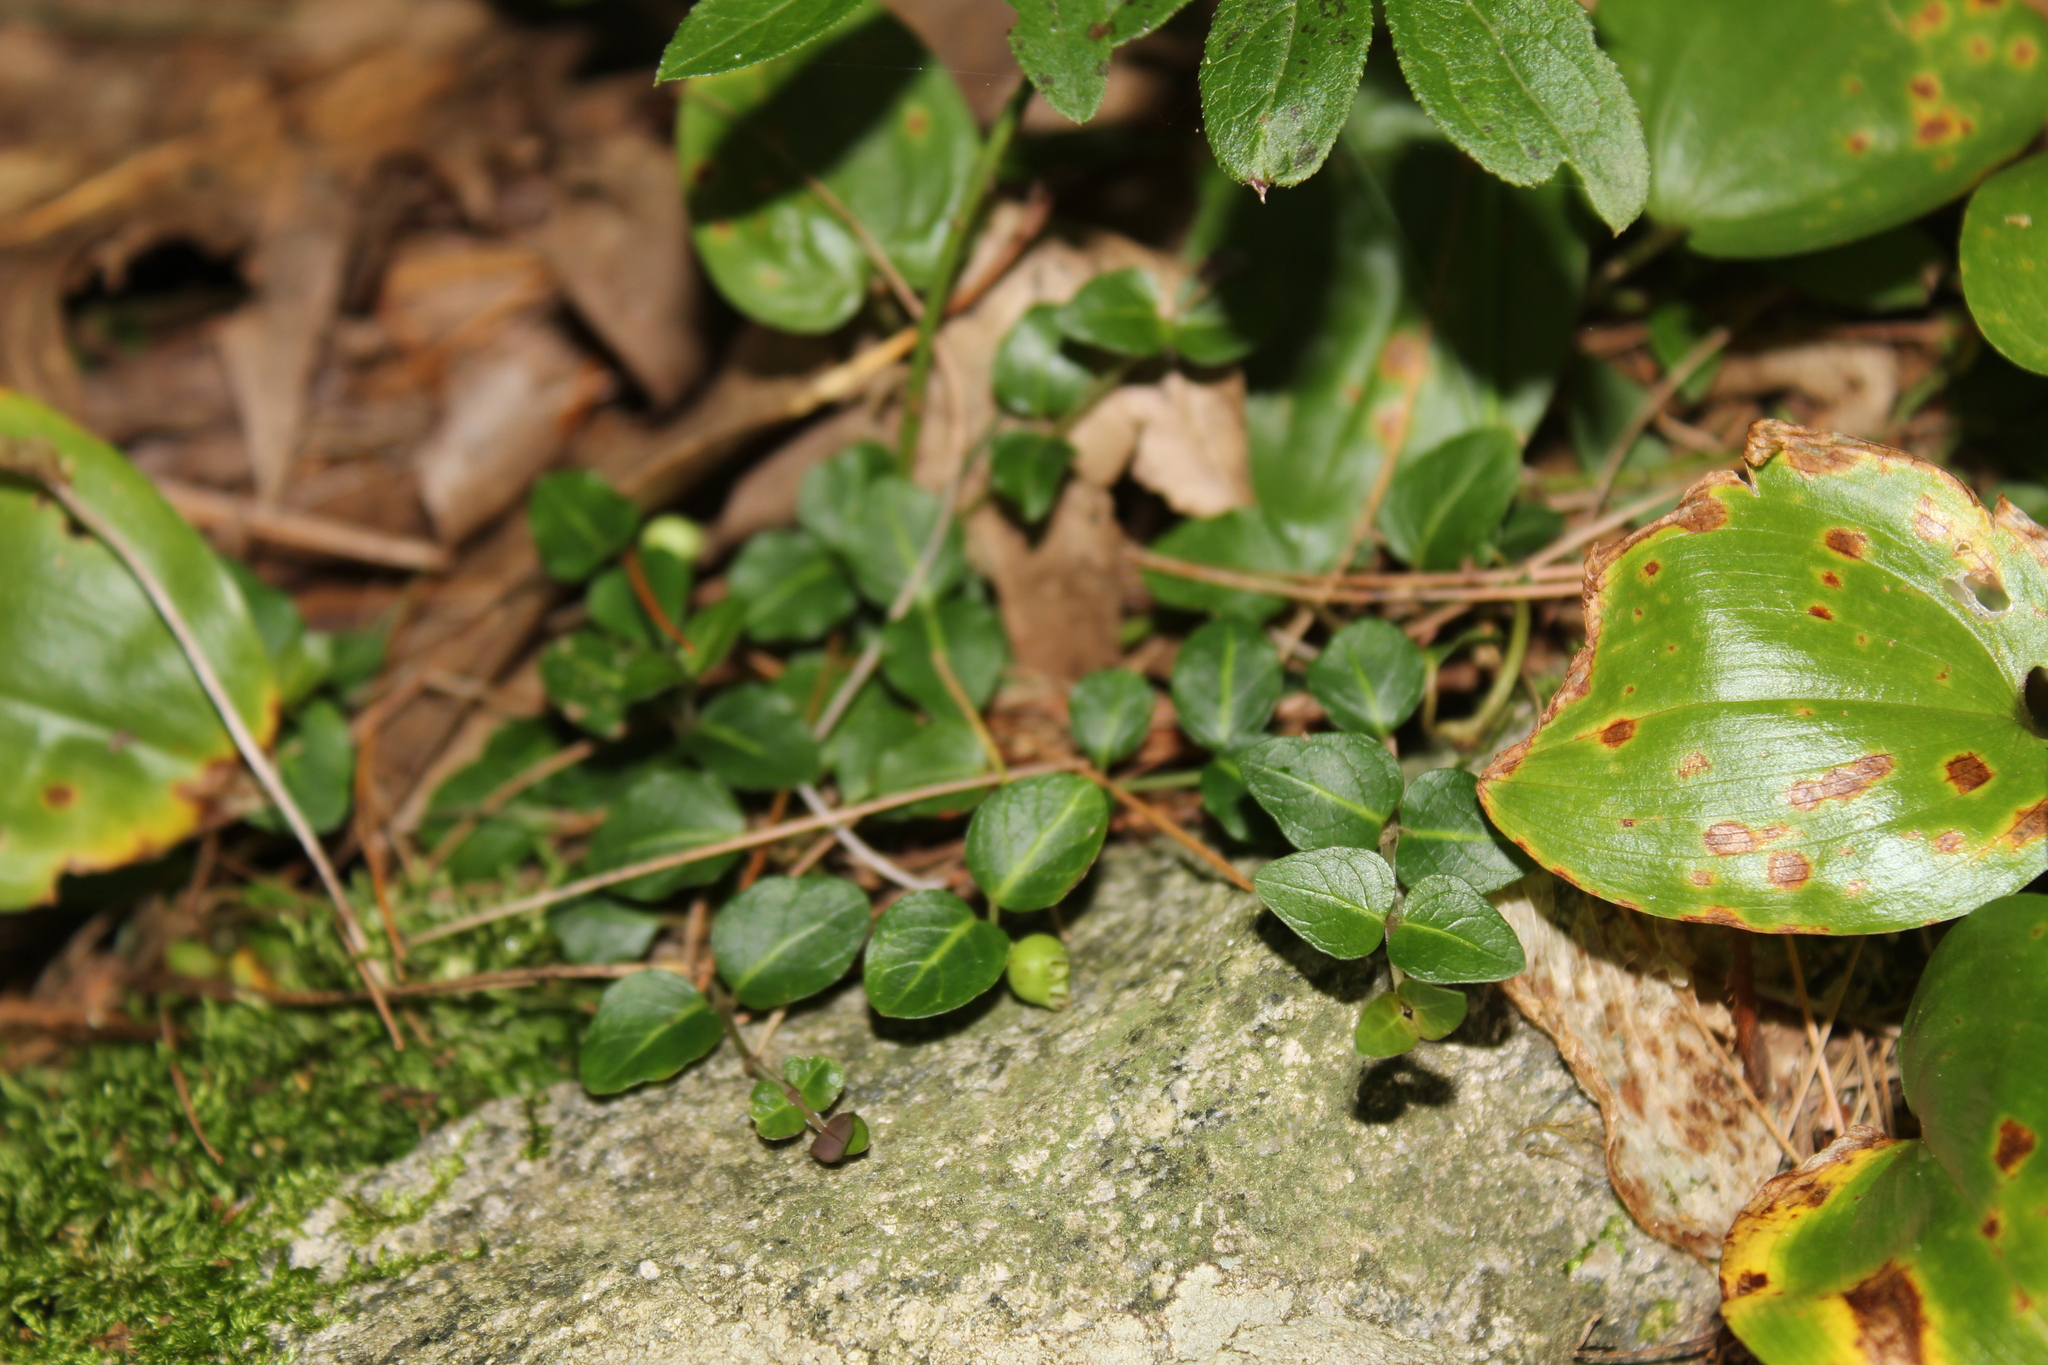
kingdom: Plantae
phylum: Tracheophyta
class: Magnoliopsida
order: Gentianales
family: Rubiaceae
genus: Mitchella
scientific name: Mitchella repens
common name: Partridge-berry
